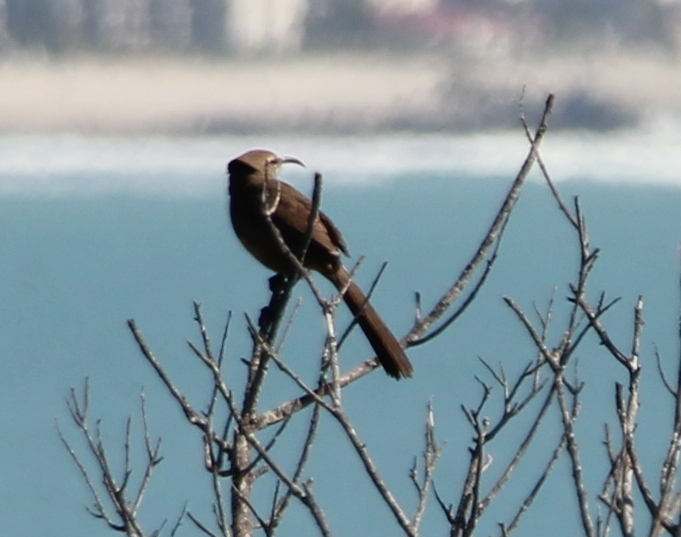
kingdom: Animalia
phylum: Chordata
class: Aves
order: Passeriformes
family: Mimidae
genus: Toxostoma
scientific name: Toxostoma redivivum
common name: California thrasher
